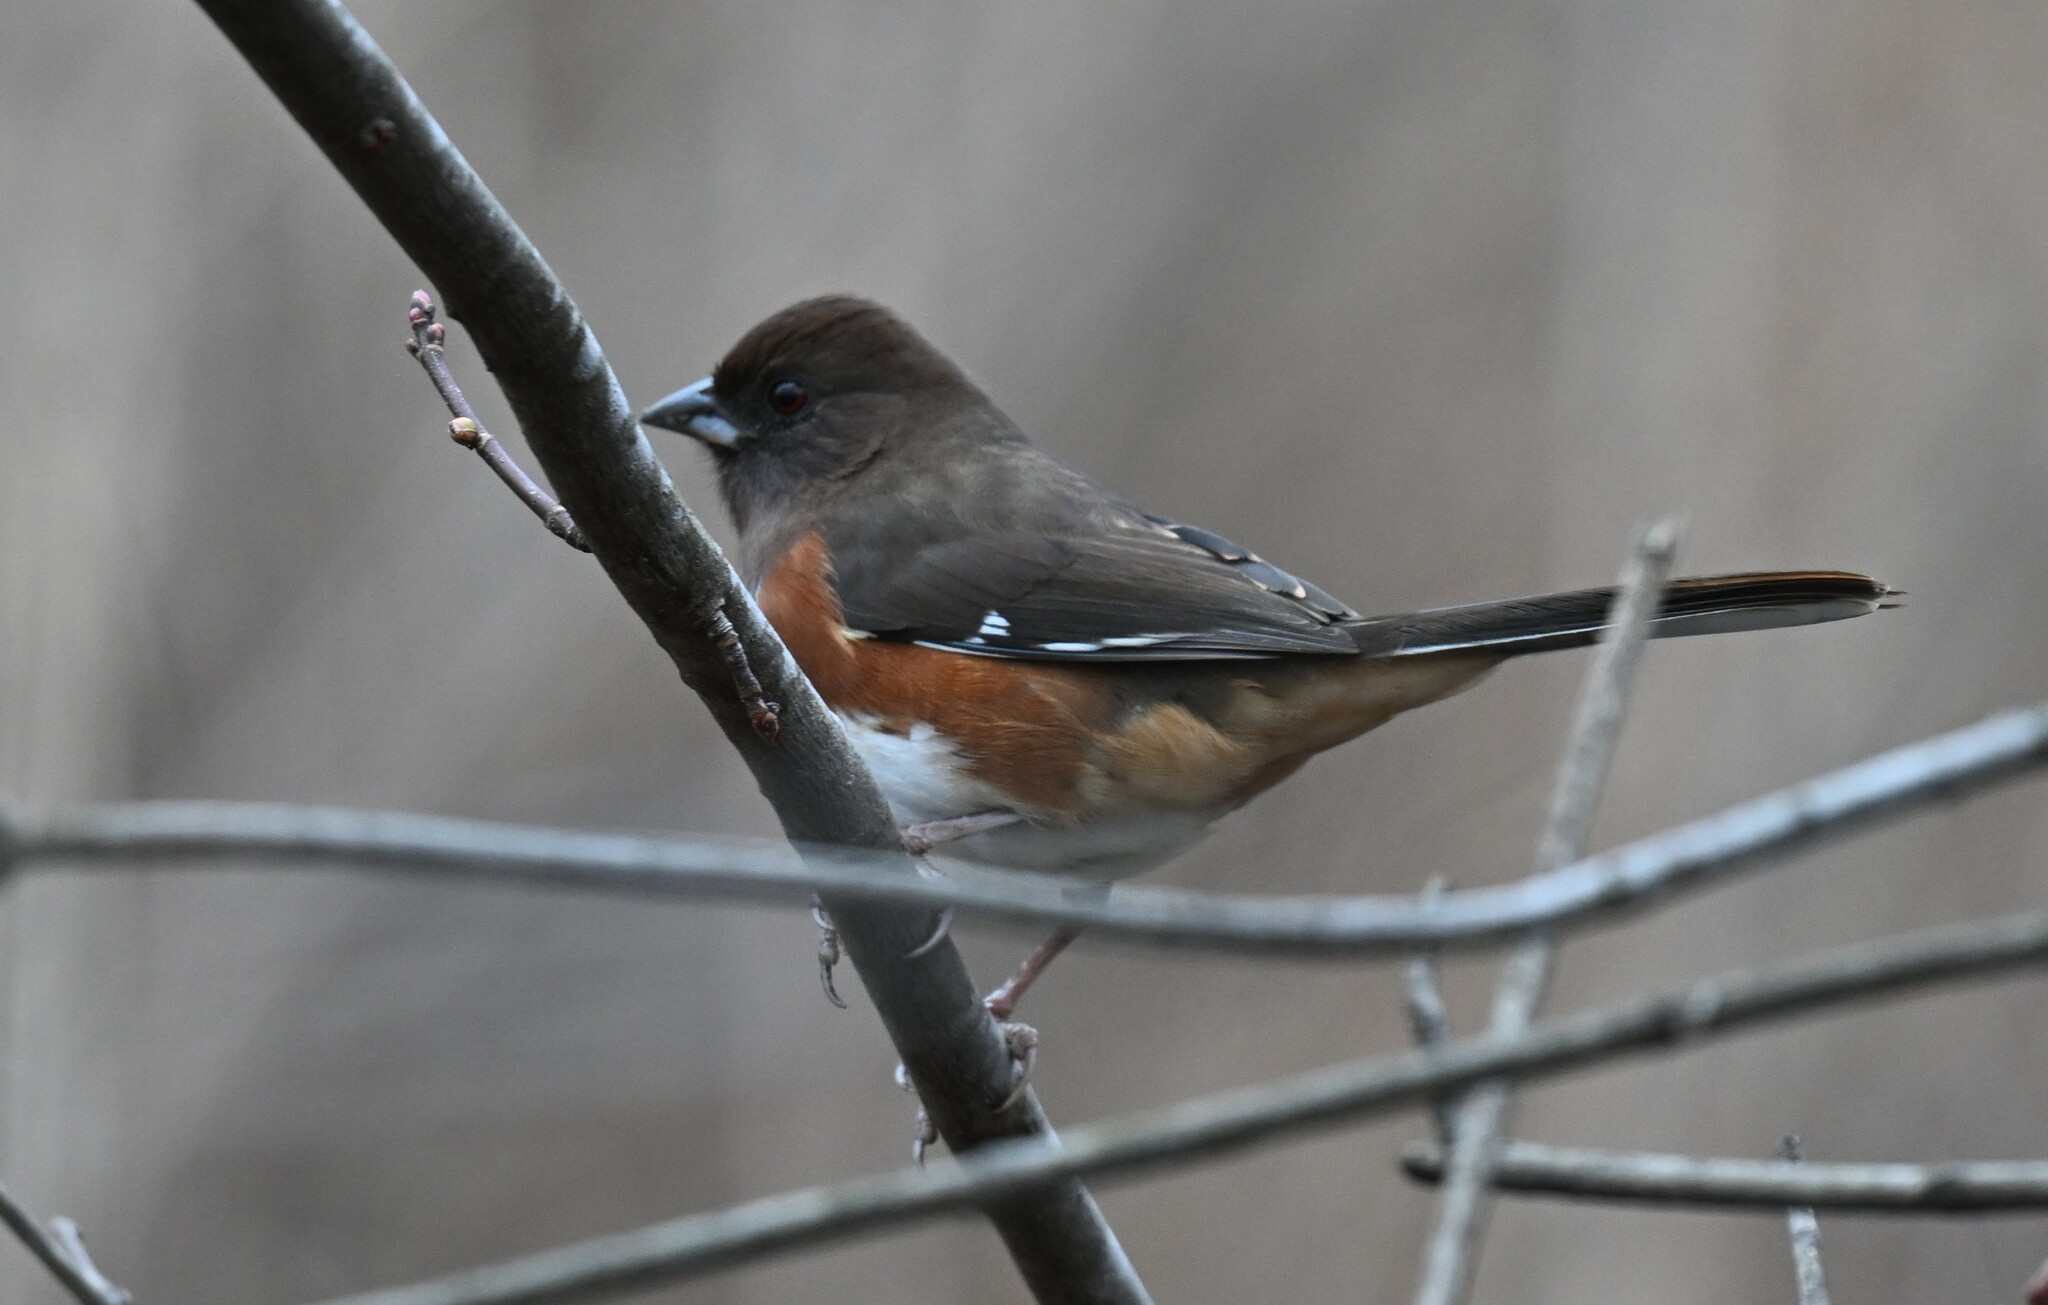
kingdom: Animalia
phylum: Chordata
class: Aves
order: Passeriformes
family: Passerellidae
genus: Pipilo
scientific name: Pipilo erythrophthalmus
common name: Eastern towhee
